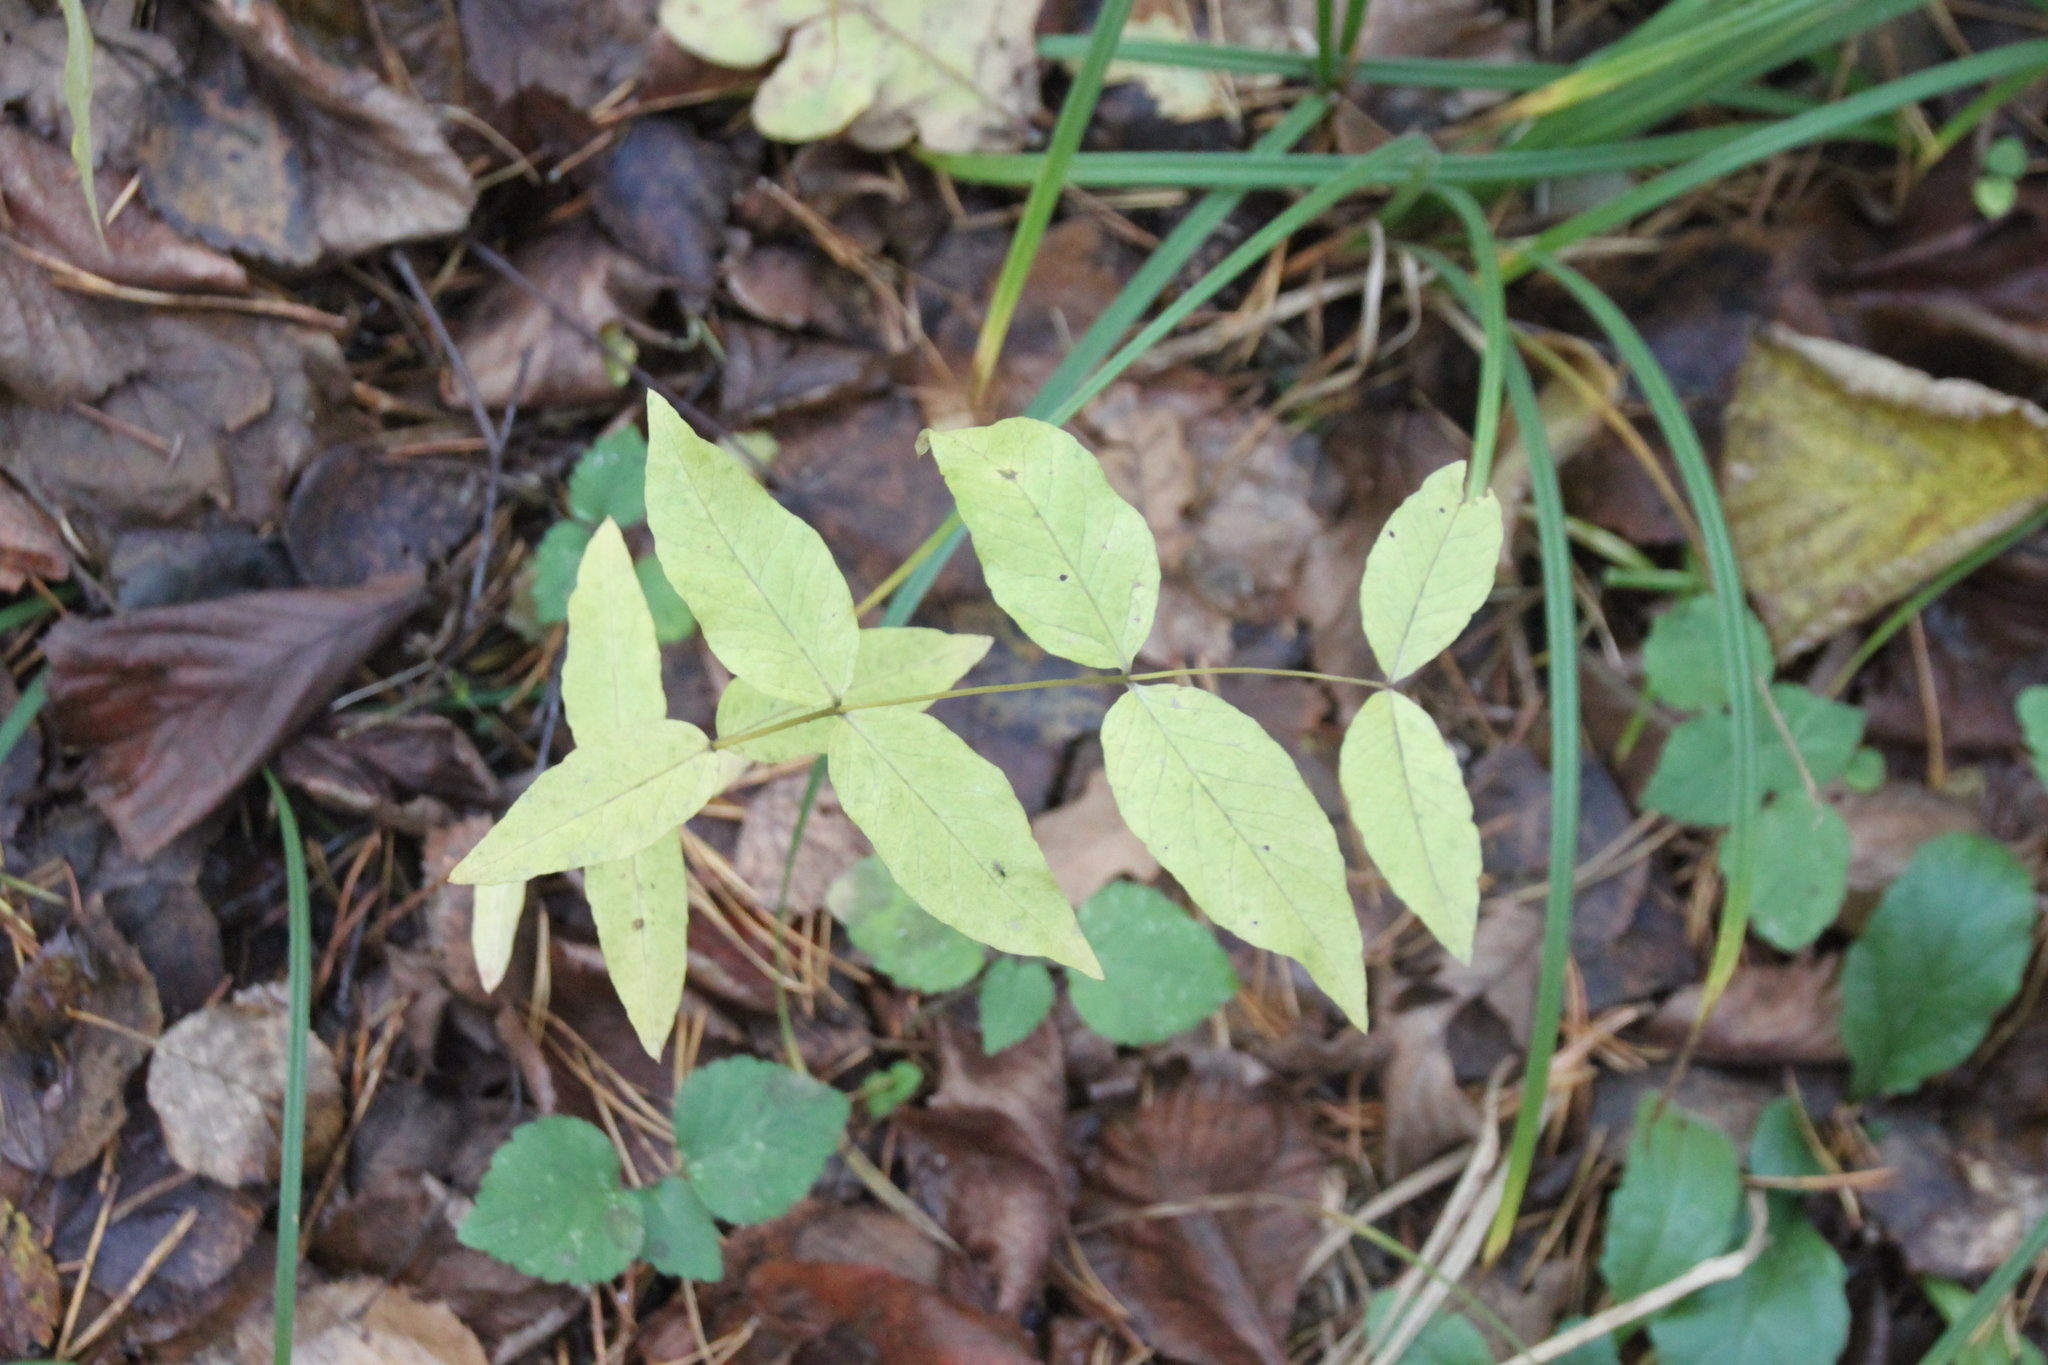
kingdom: Plantae
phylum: Tracheophyta
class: Magnoliopsida
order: Ericales
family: Primulaceae
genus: Lysimachia
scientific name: Lysimachia vulgaris
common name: Yellow loosestrife
